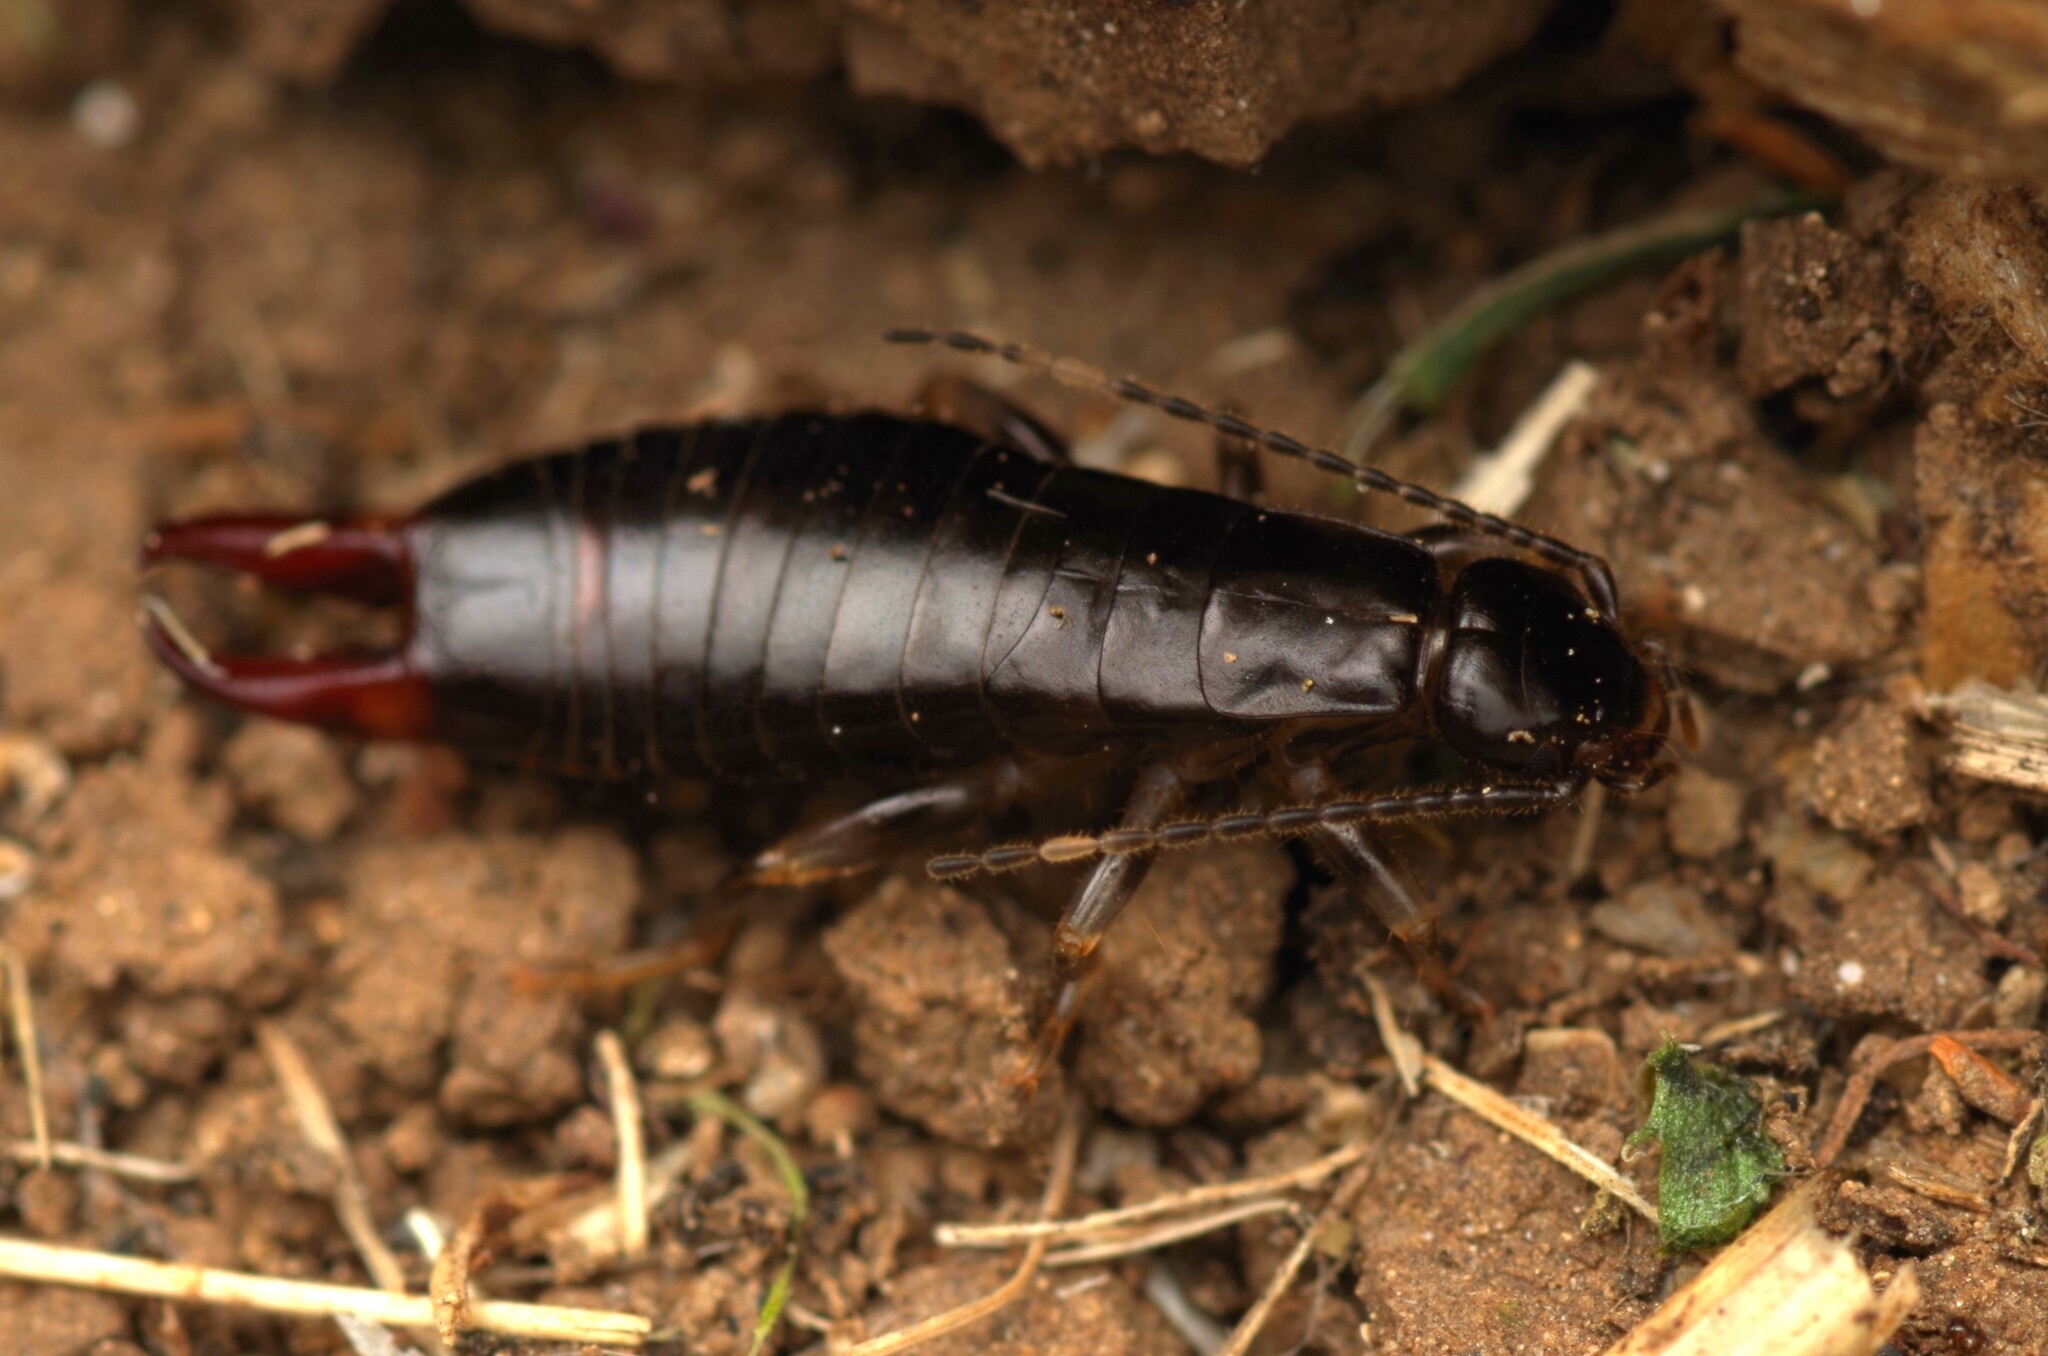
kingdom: Animalia
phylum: Arthropoda
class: Insecta
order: Dermaptera
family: Anisolabididae
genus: Euborellia
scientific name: Euborellia annulipes
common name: Ringlegged earwig
